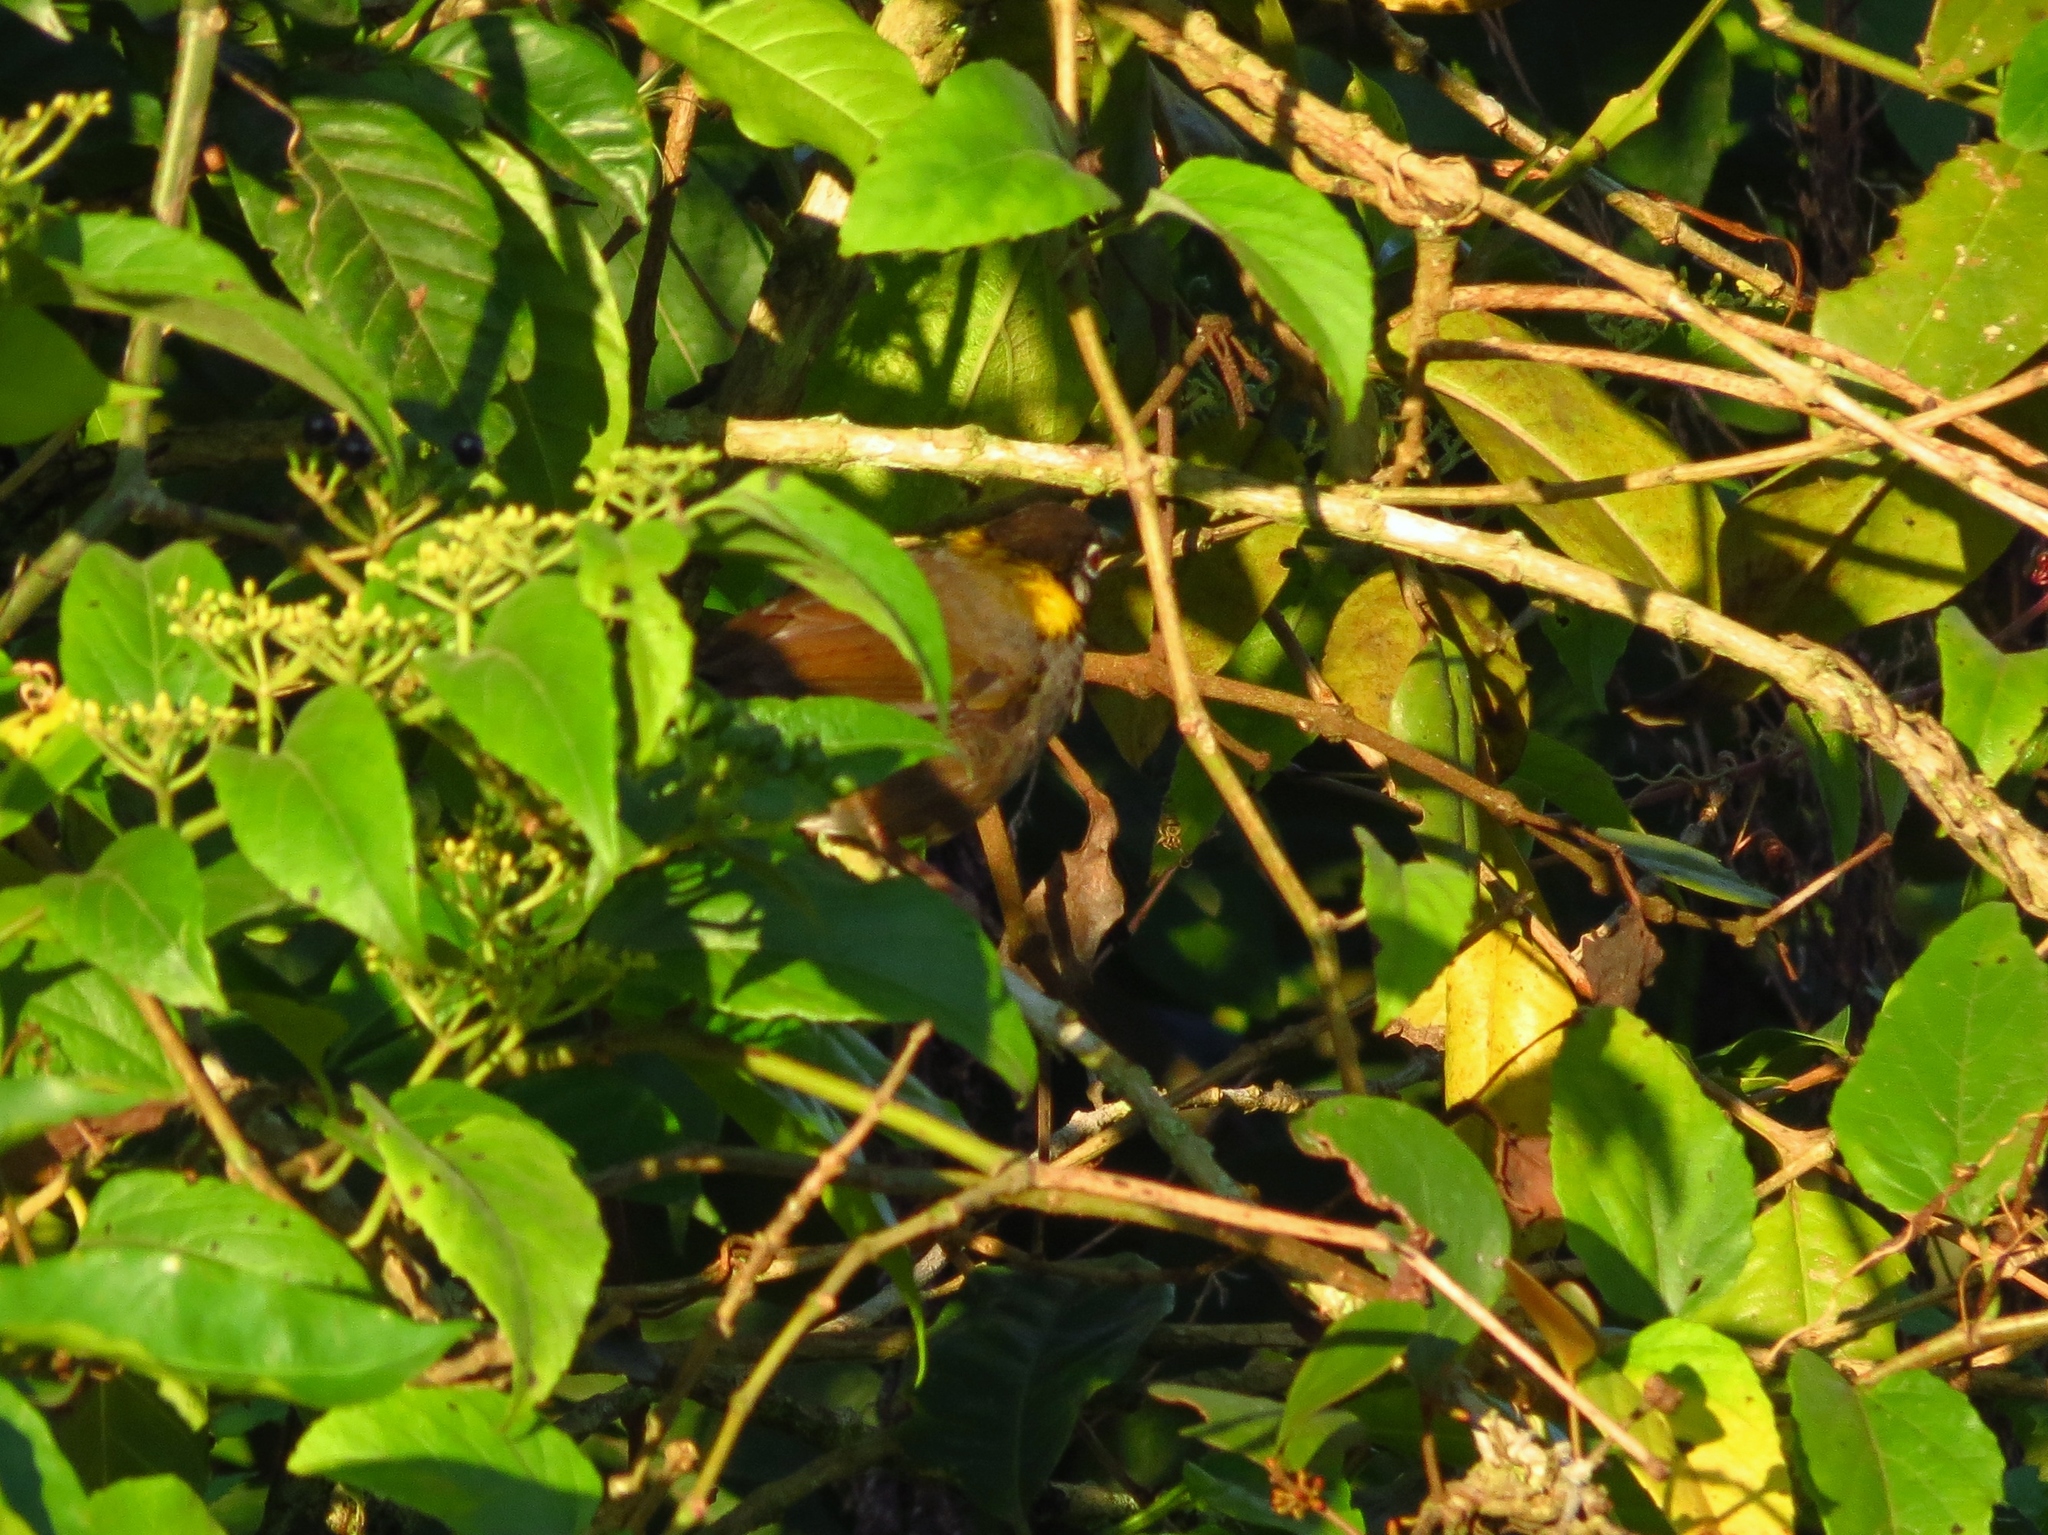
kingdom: Animalia
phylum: Chordata
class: Aves
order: Passeriformes
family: Passerellidae
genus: Melozone
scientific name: Melozone leucotis
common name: White-eared ground-sparrow
